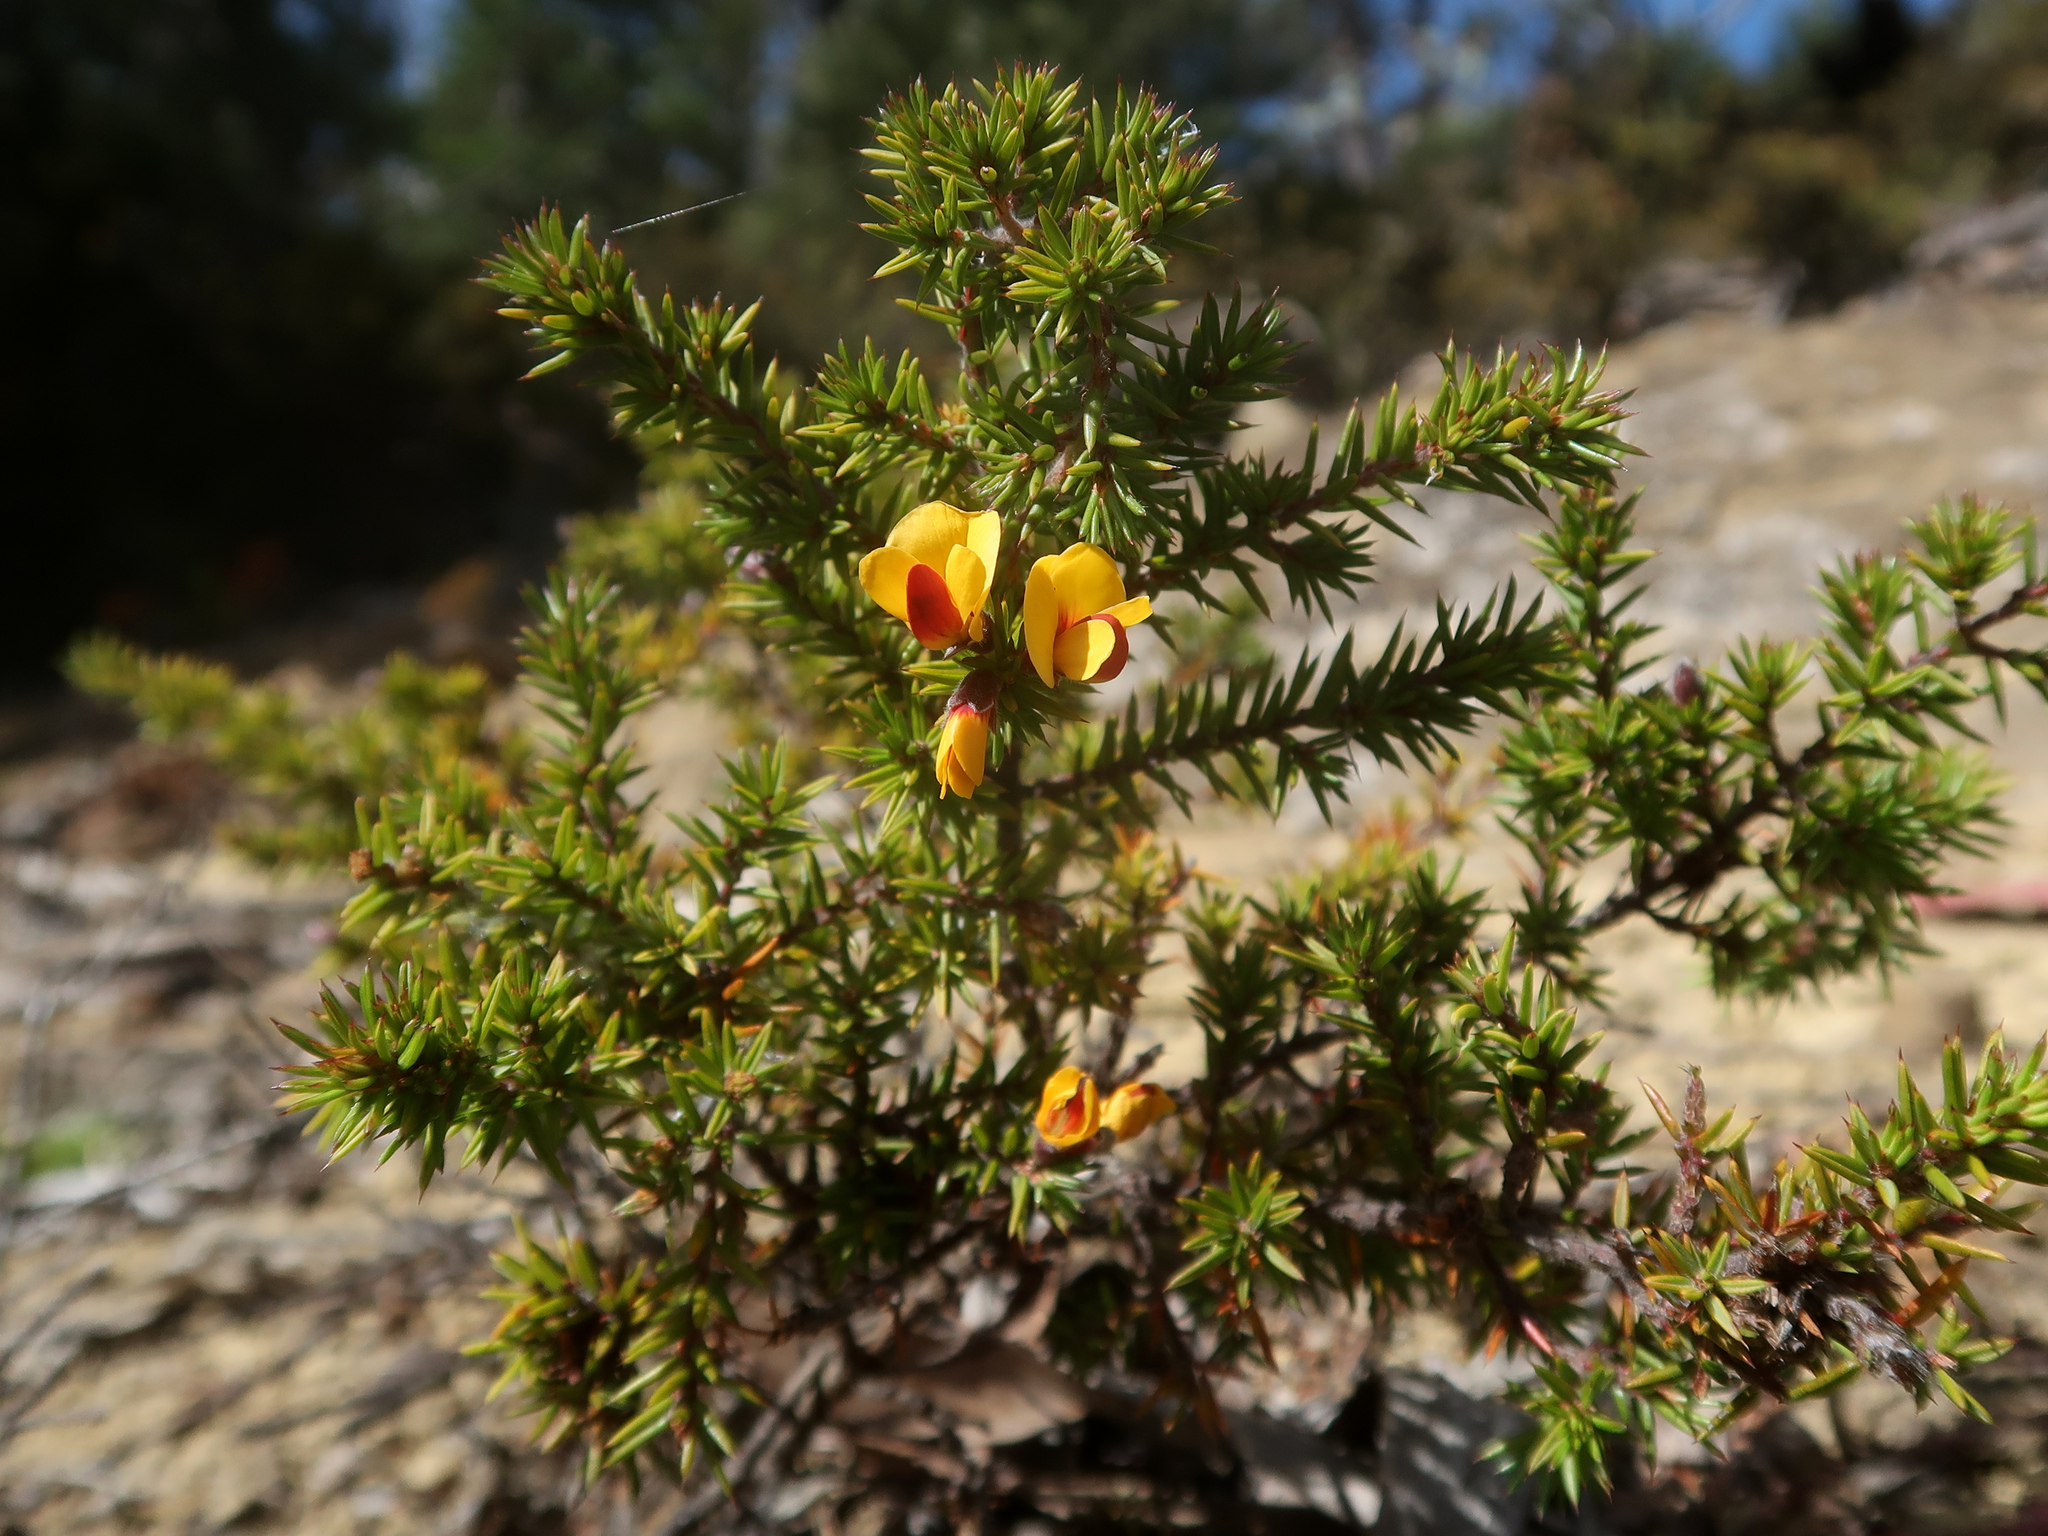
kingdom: Plantae
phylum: Tracheophyta
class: Magnoliopsida
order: Fabales
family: Fabaceae
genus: Pultenaea
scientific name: Pultenaea juniperina
